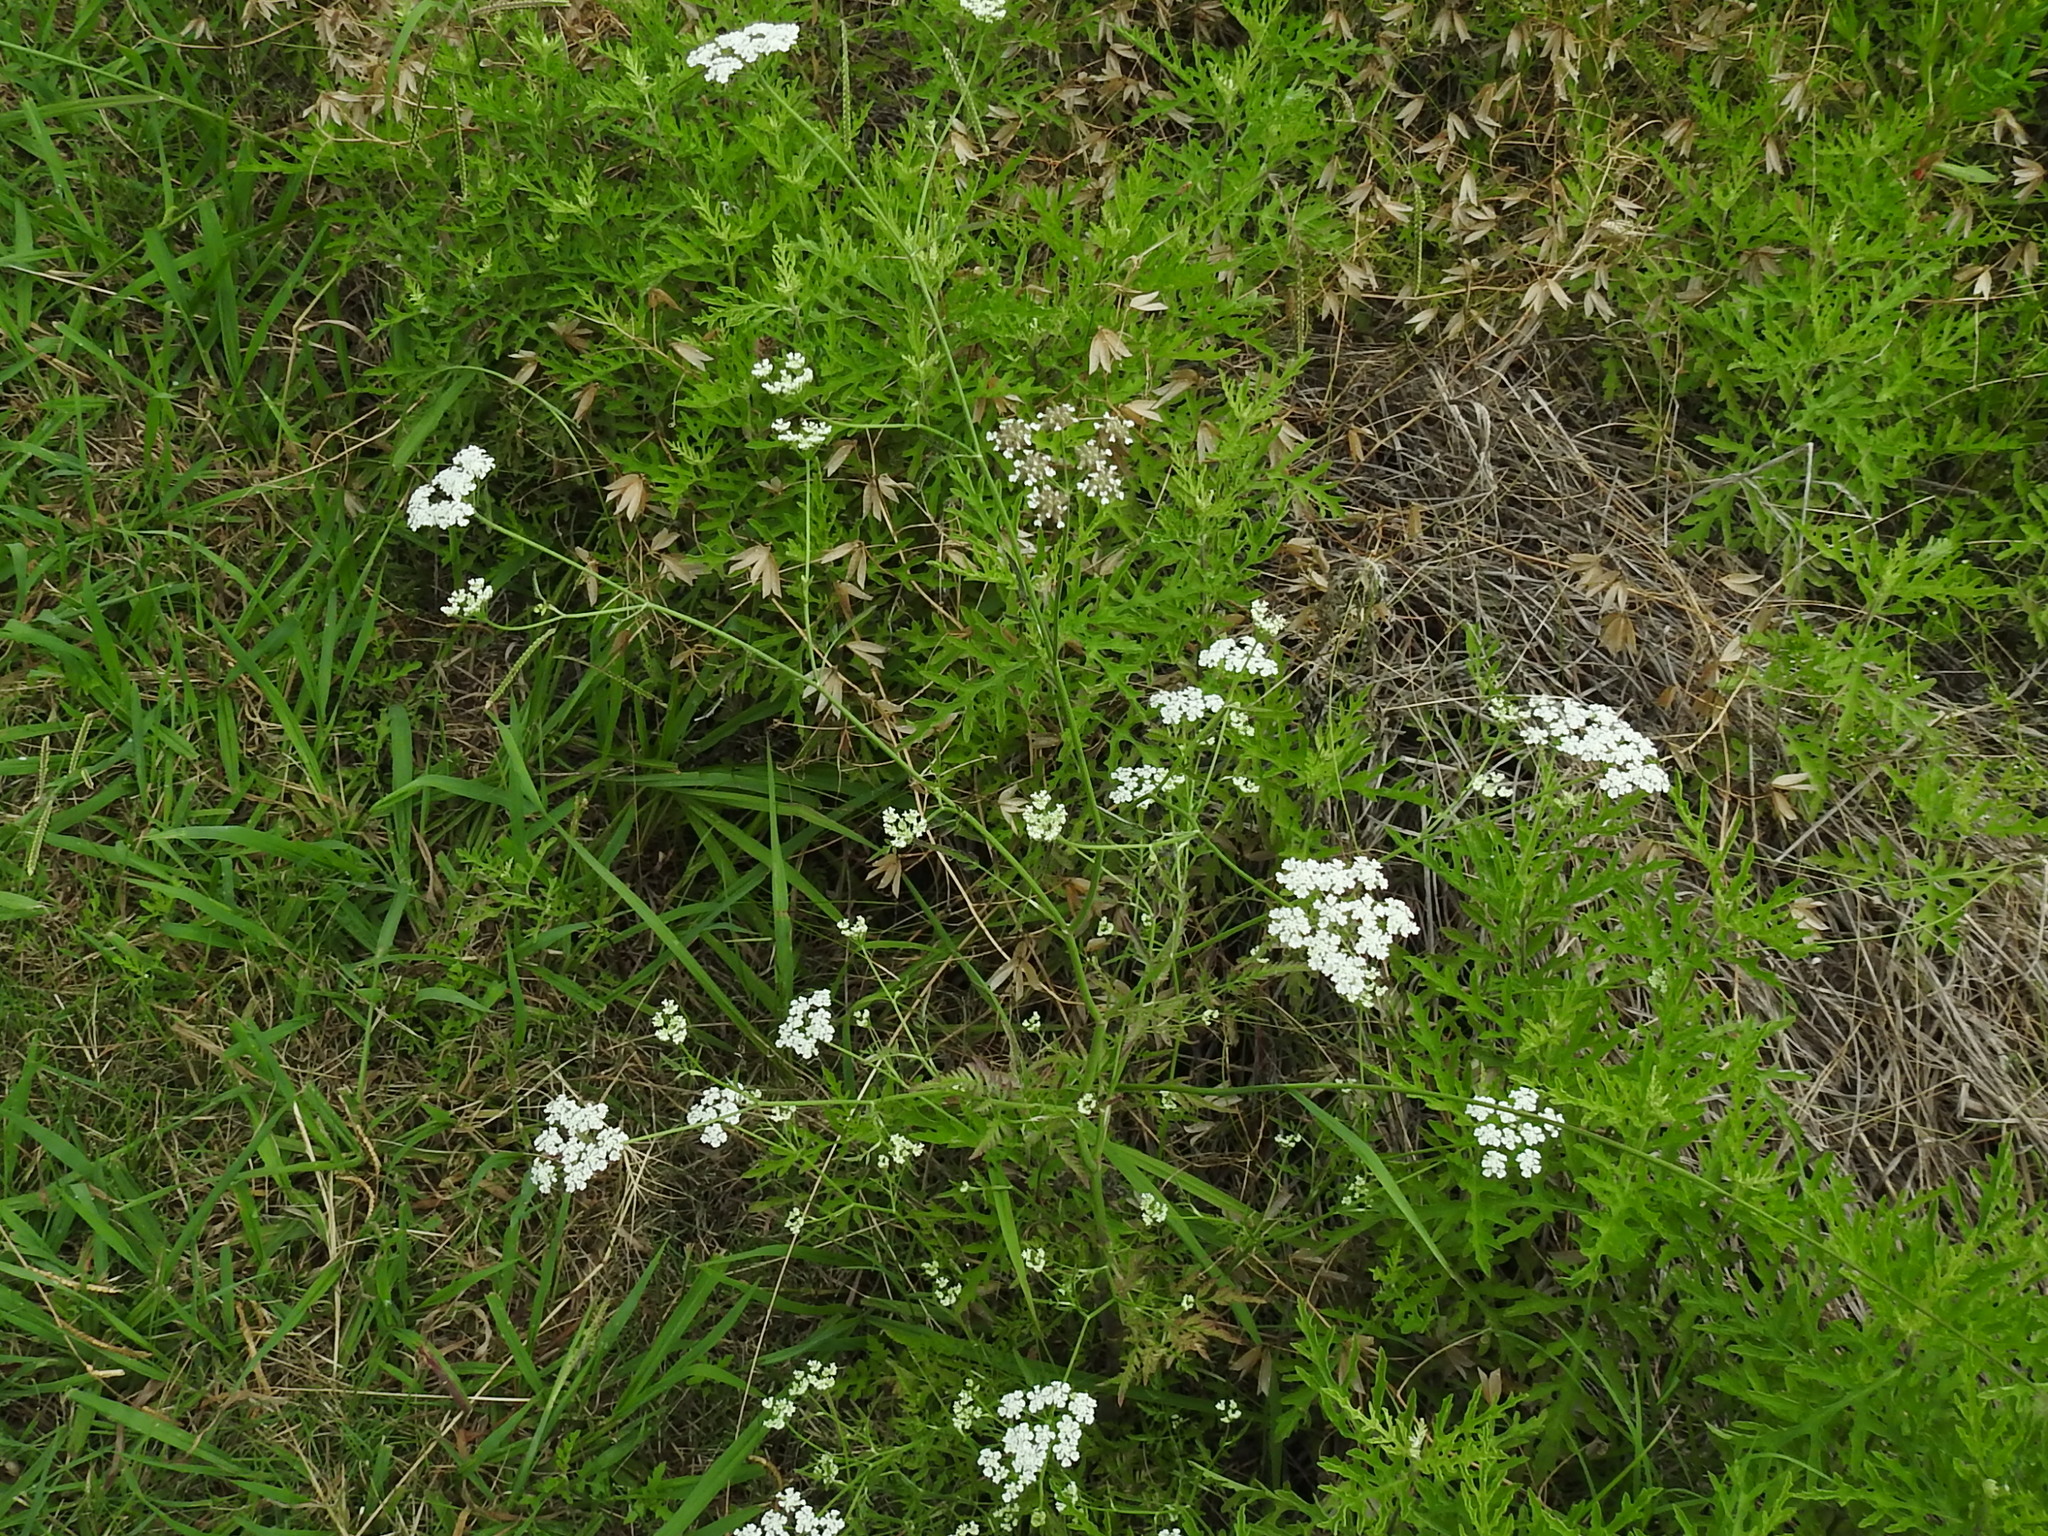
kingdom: Plantae
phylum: Tracheophyta
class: Magnoliopsida
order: Apiales
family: Apiaceae
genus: Torilis
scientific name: Torilis arvensis
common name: Spreading hedge-parsley
